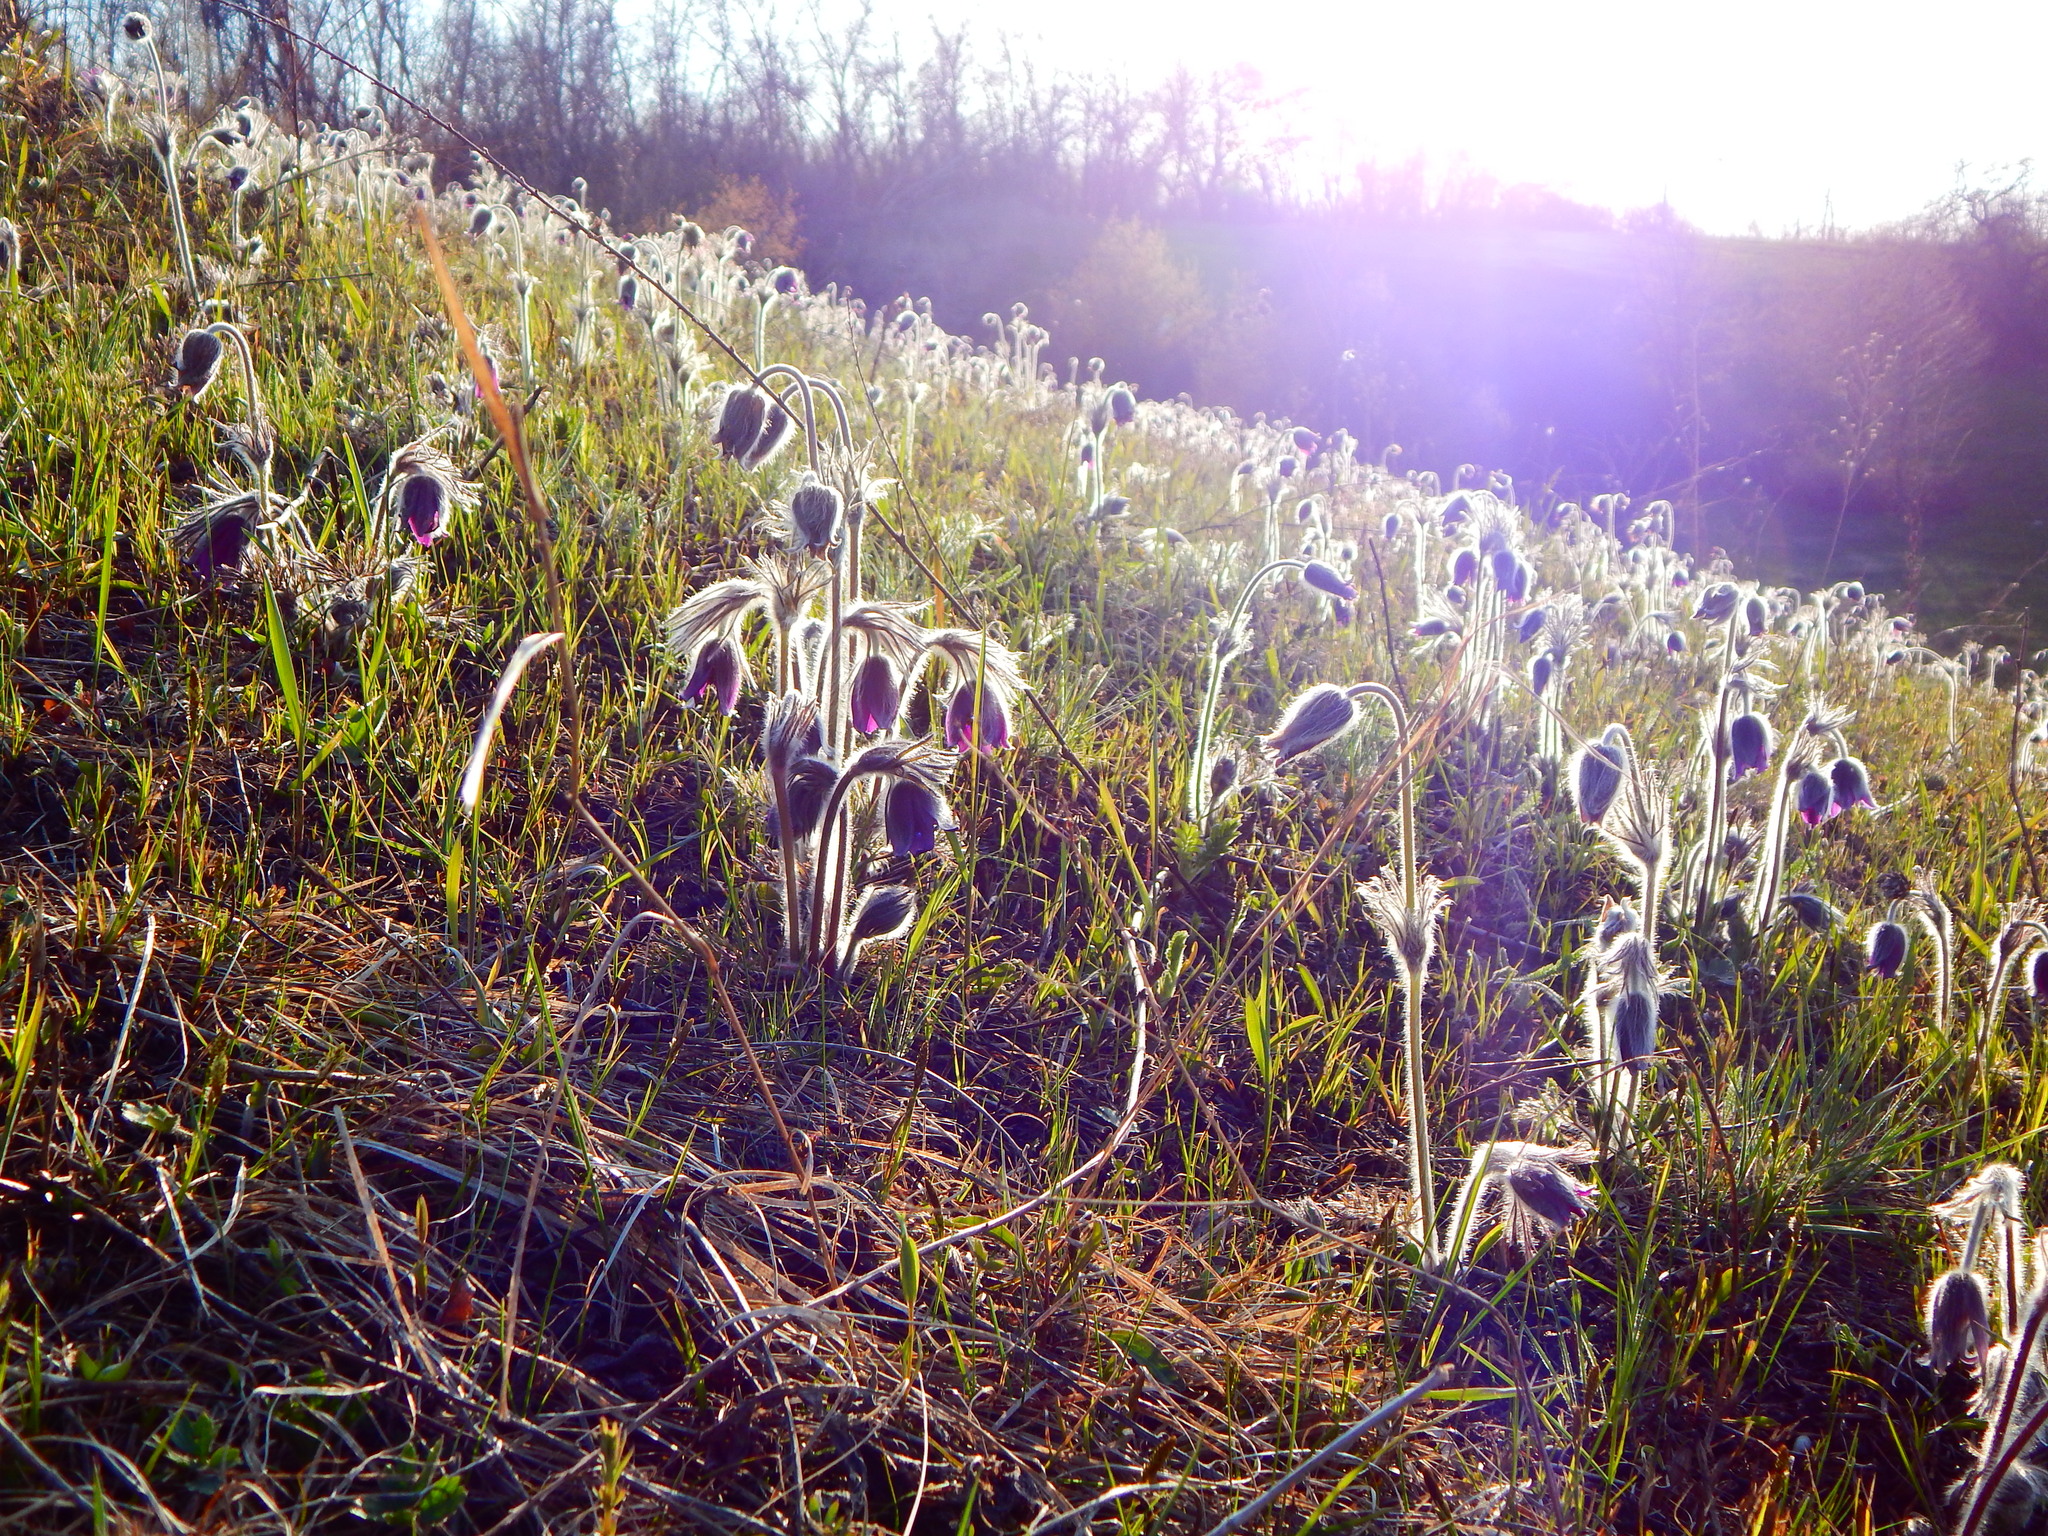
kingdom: Plantae
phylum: Tracheophyta
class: Magnoliopsida
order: Ranunculales
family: Ranunculaceae
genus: Pulsatilla
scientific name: Pulsatilla pratensis
